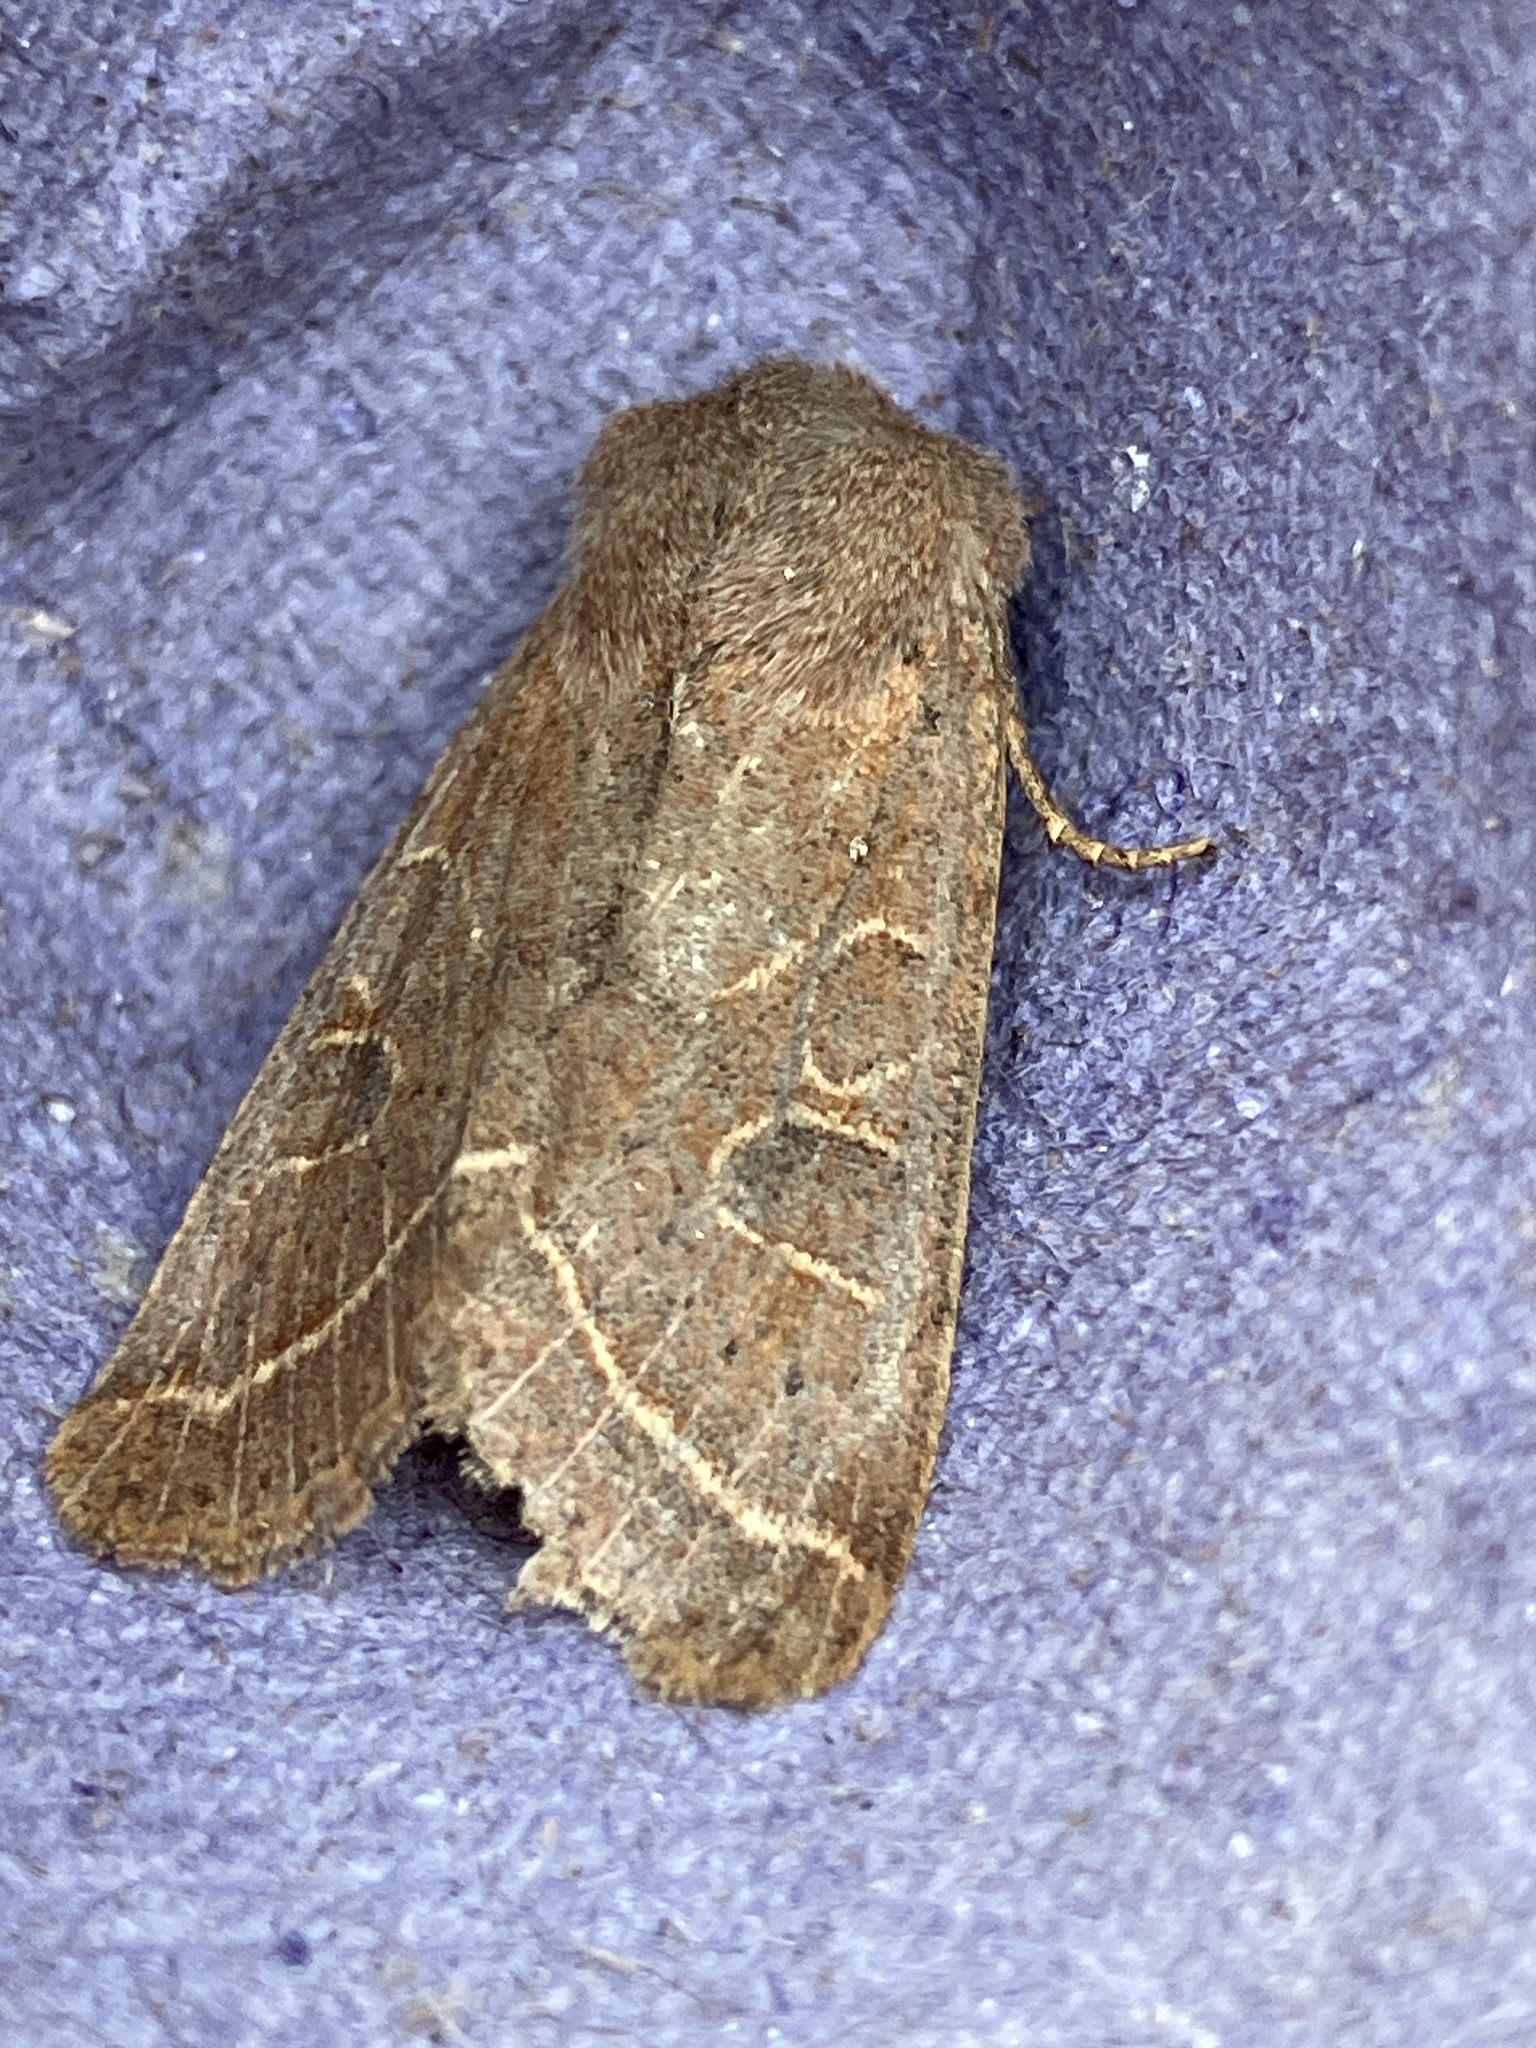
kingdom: Animalia
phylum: Arthropoda
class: Insecta
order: Lepidoptera
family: Noctuidae
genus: Orthosia
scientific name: Orthosia cerasi
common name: Common quaker
